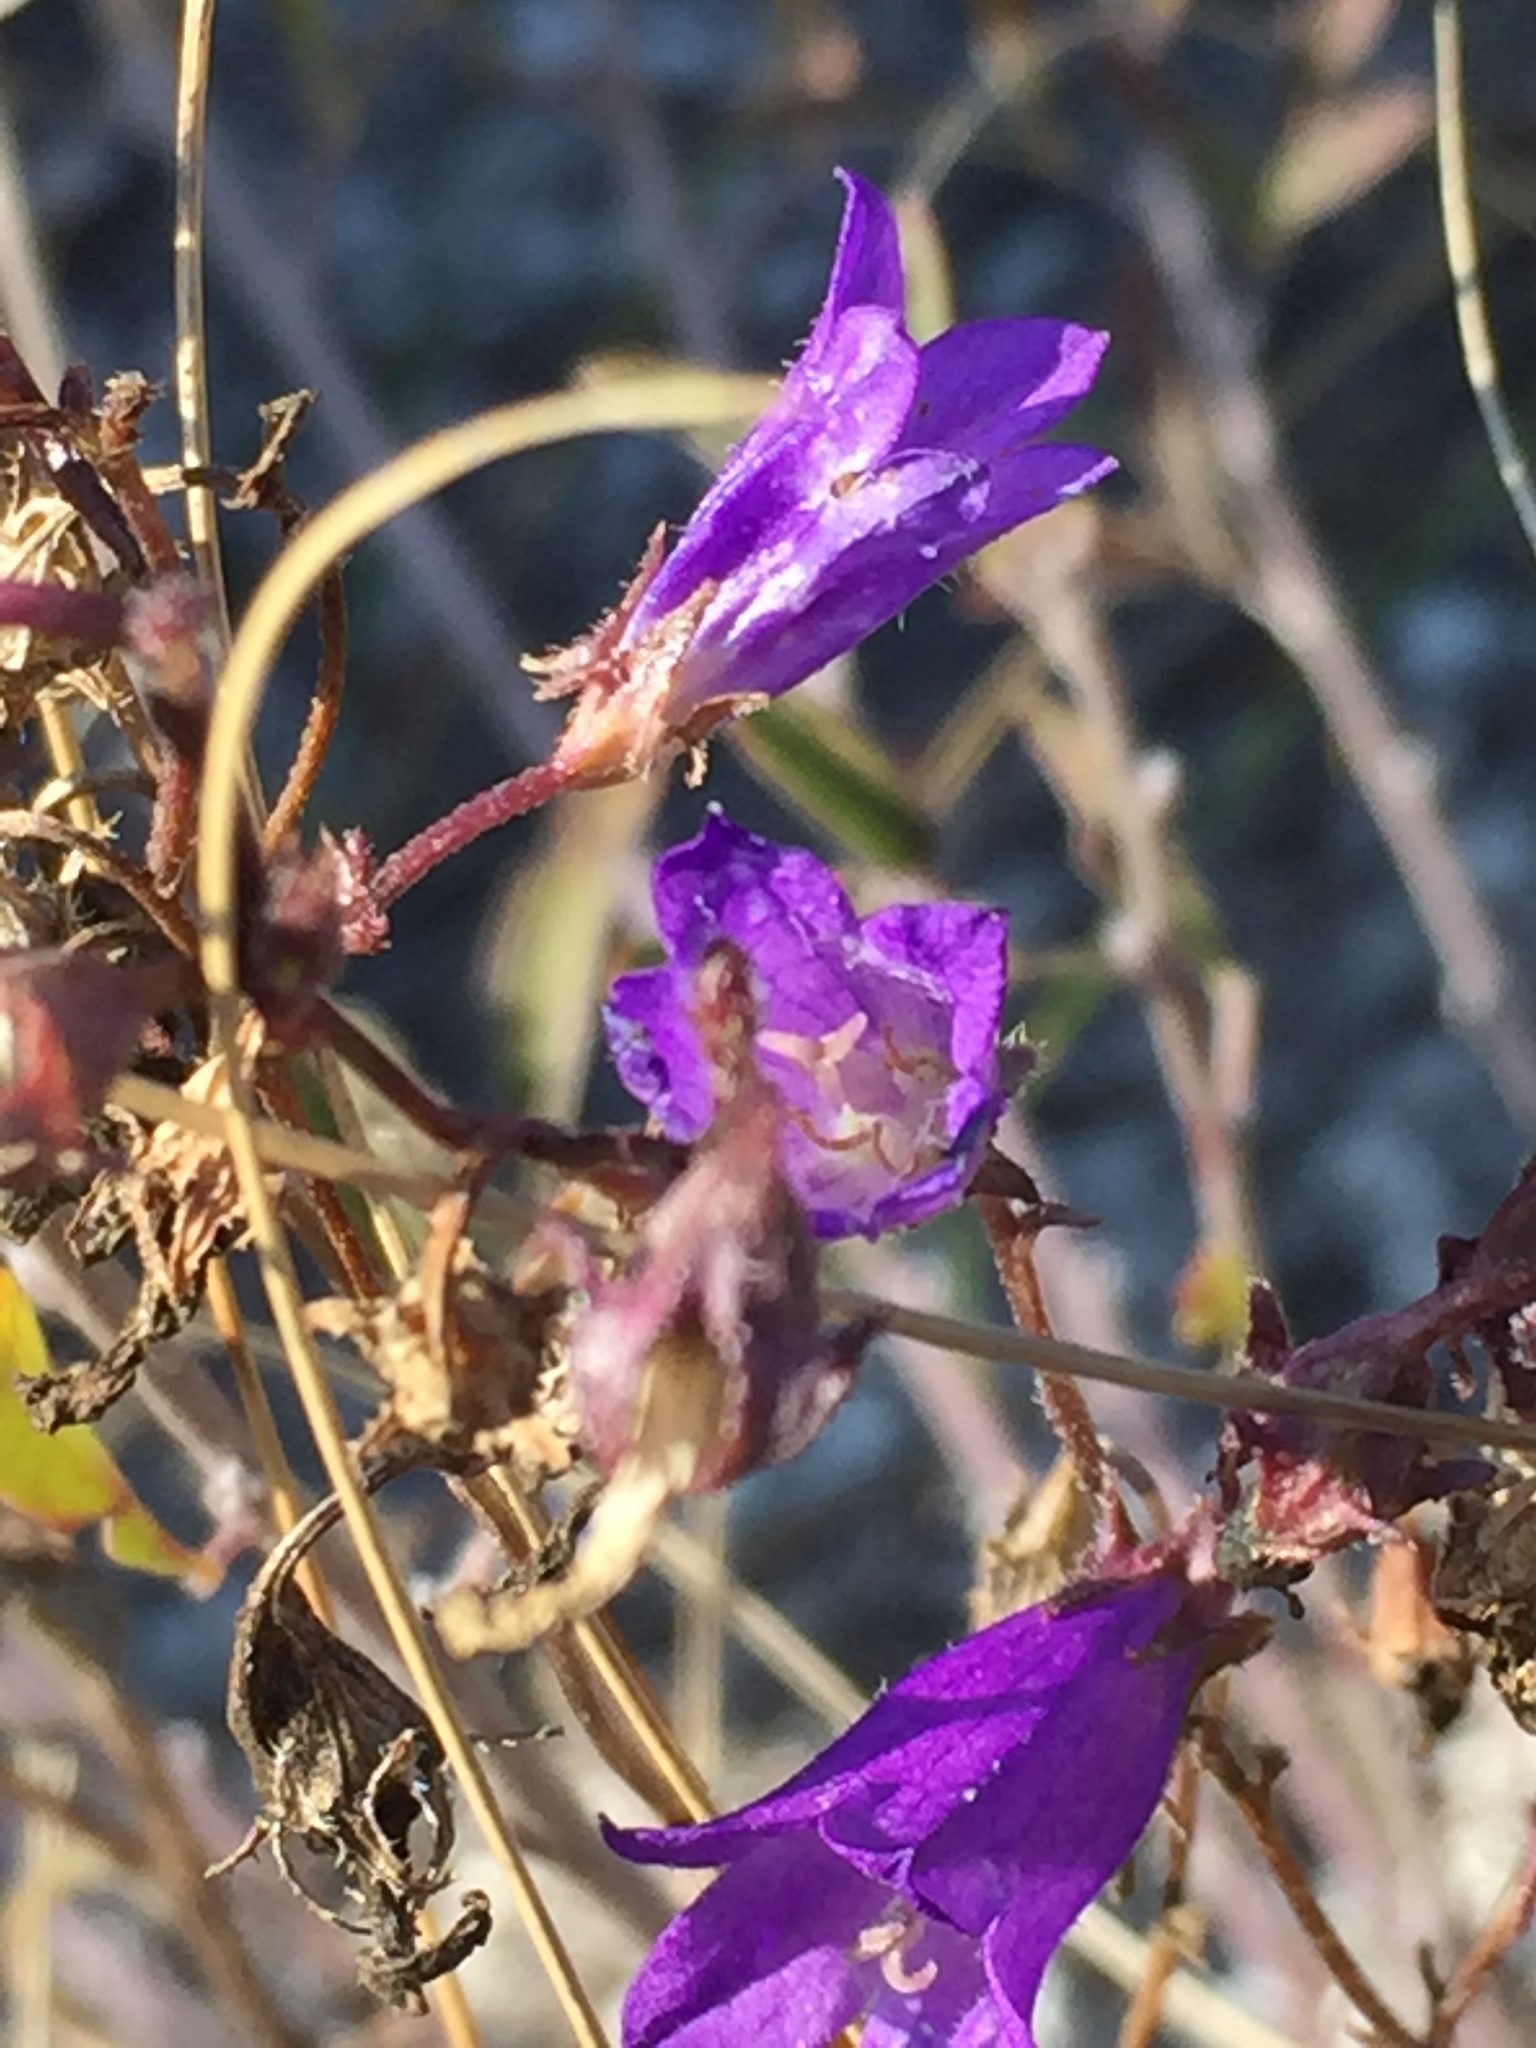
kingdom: Plantae
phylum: Tracheophyta
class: Magnoliopsida
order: Asterales
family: Campanulaceae
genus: Campanula
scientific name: Campanula sibirica
